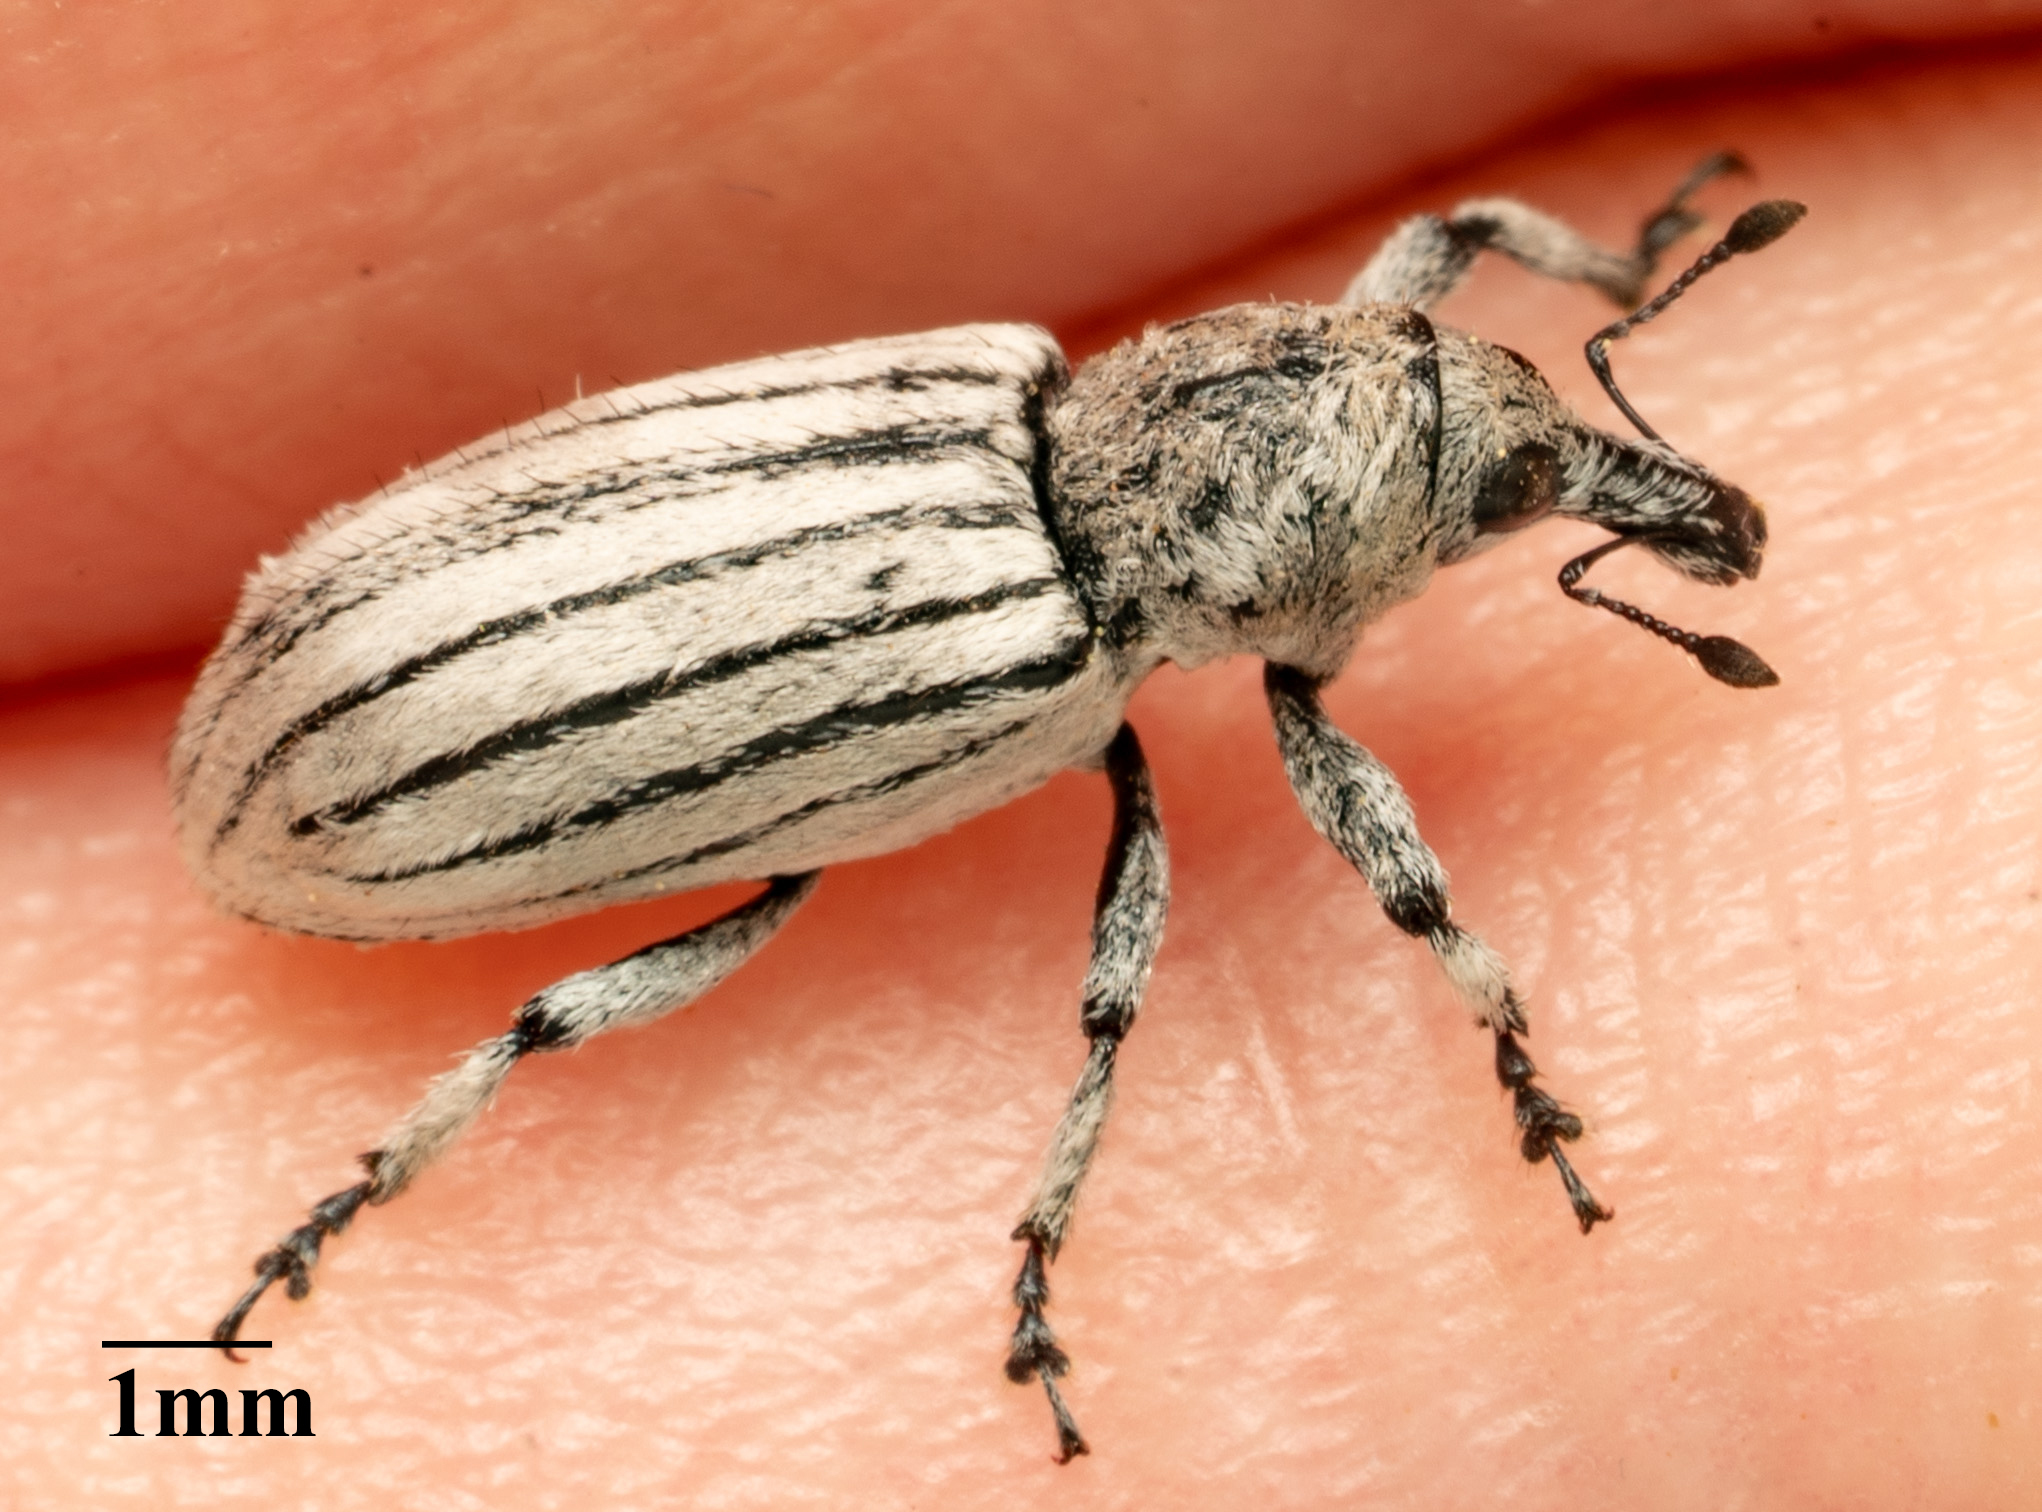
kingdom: Animalia
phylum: Arthropoda
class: Insecta
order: Coleoptera
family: Curculionidae
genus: Myrmex
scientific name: Myrmex lineatus
